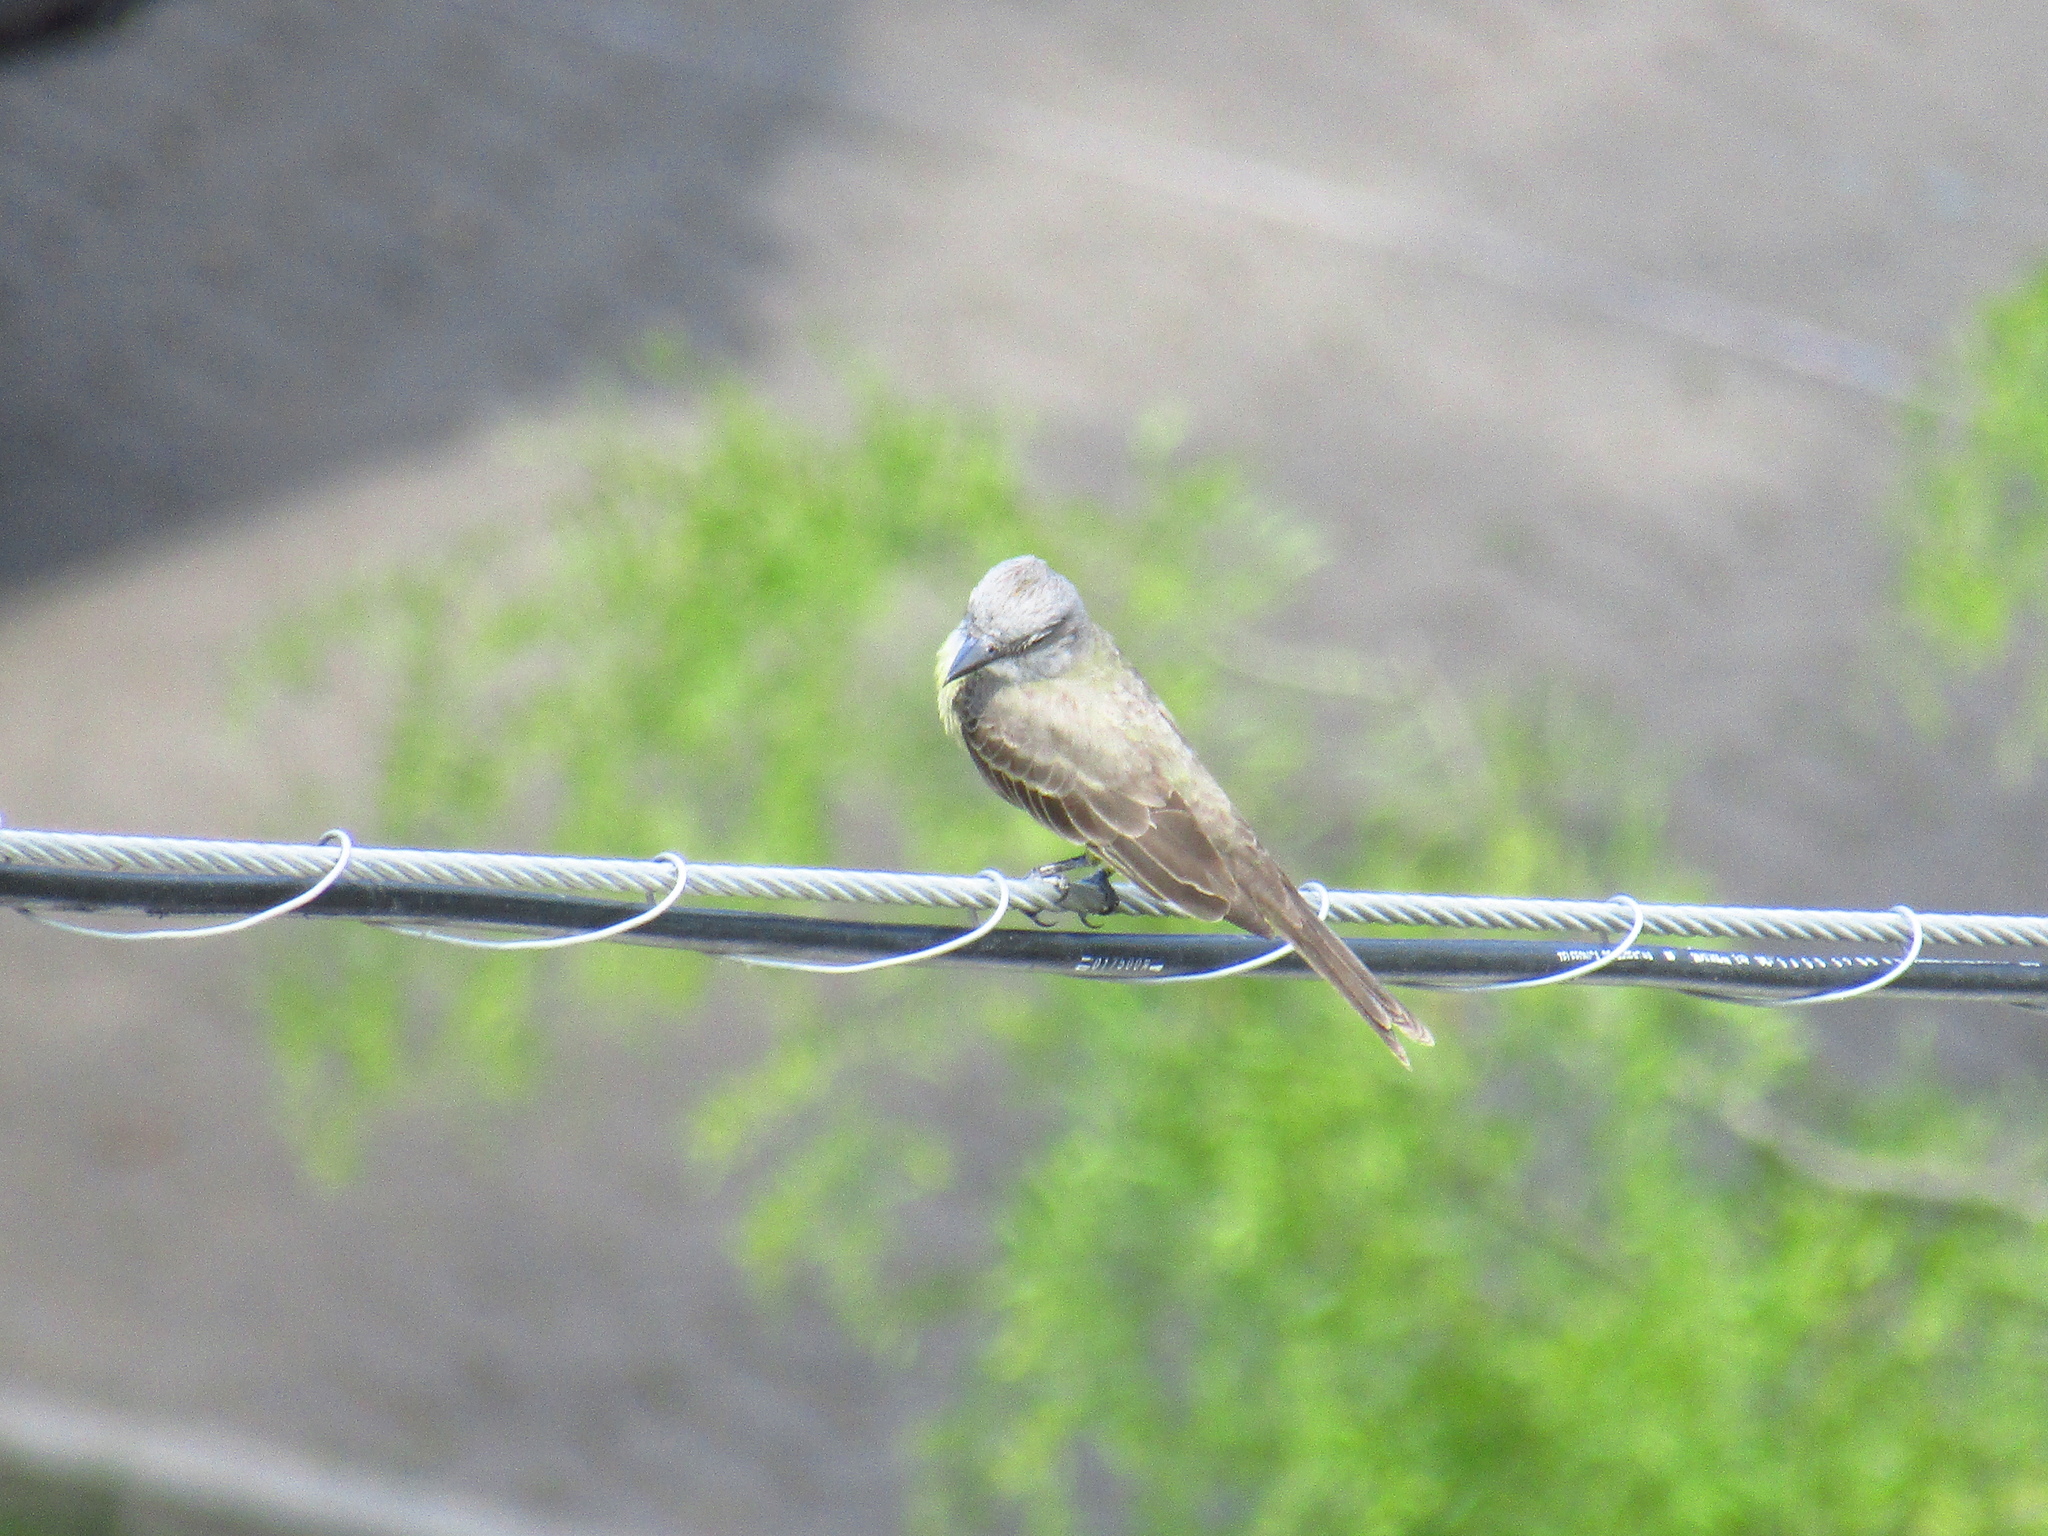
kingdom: Animalia
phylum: Chordata
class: Aves
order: Passeriformes
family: Tyrannidae
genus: Tyrannus
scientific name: Tyrannus melancholicus
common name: Tropical kingbird
